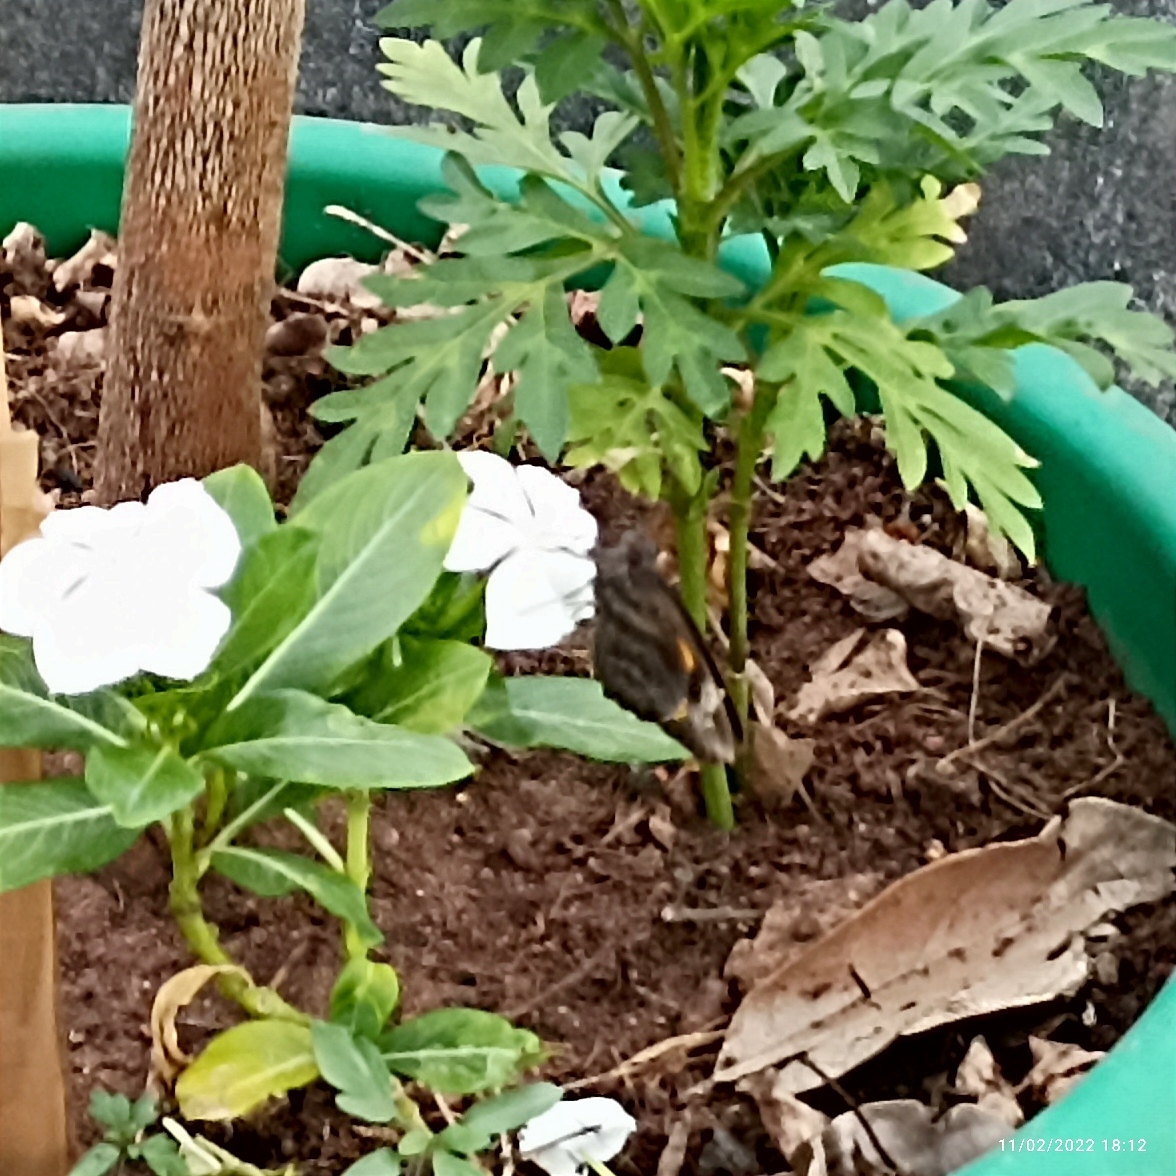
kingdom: Animalia
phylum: Arthropoda
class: Insecta
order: Lepidoptera
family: Hesperiidae
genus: Gangara
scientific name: Gangara thyrsis
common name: Giant redeye
